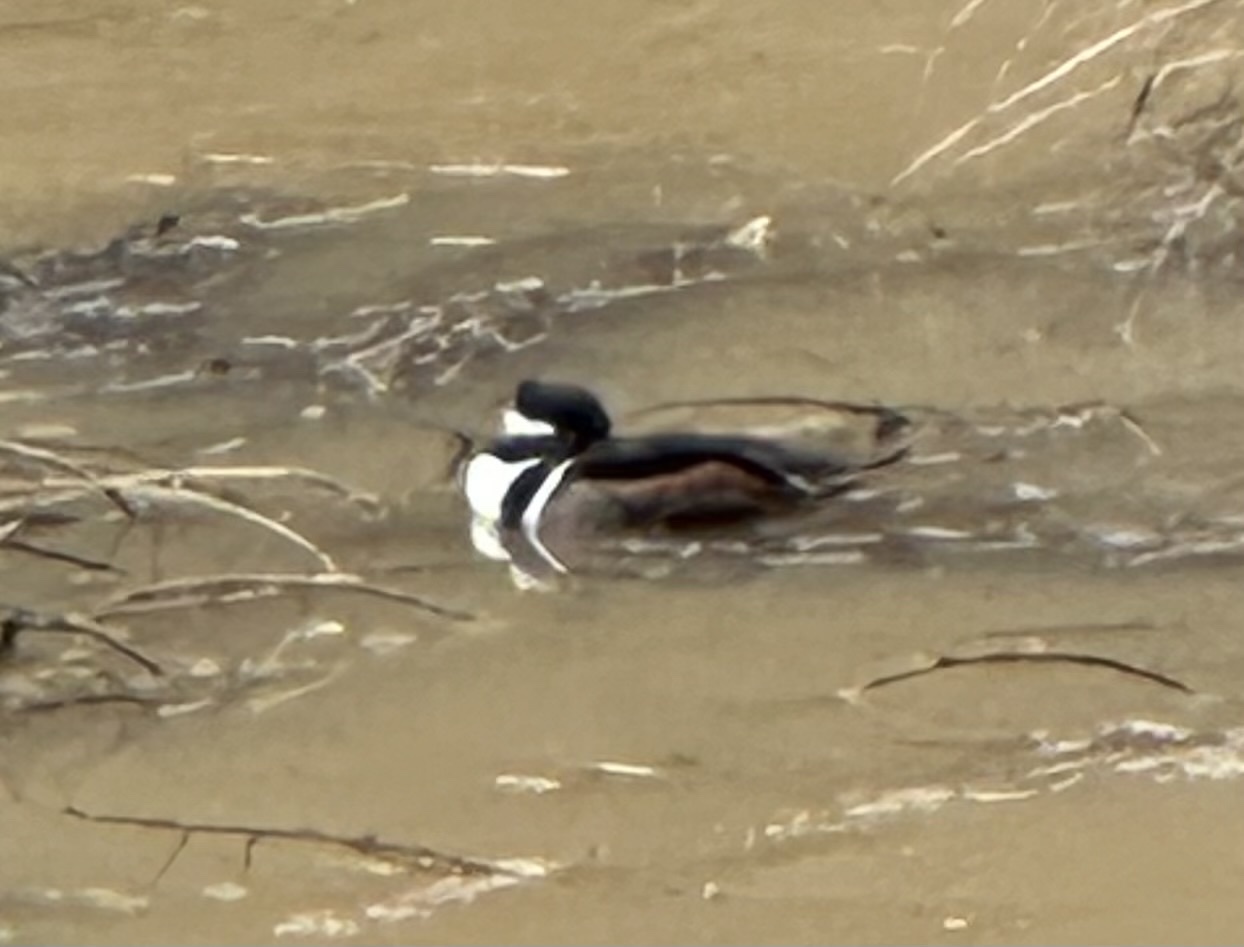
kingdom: Animalia
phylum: Chordata
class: Aves
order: Anseriformes
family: Anatidae
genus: Lophodytes
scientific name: Lophodytes cucullatus
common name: Hooded merganser
